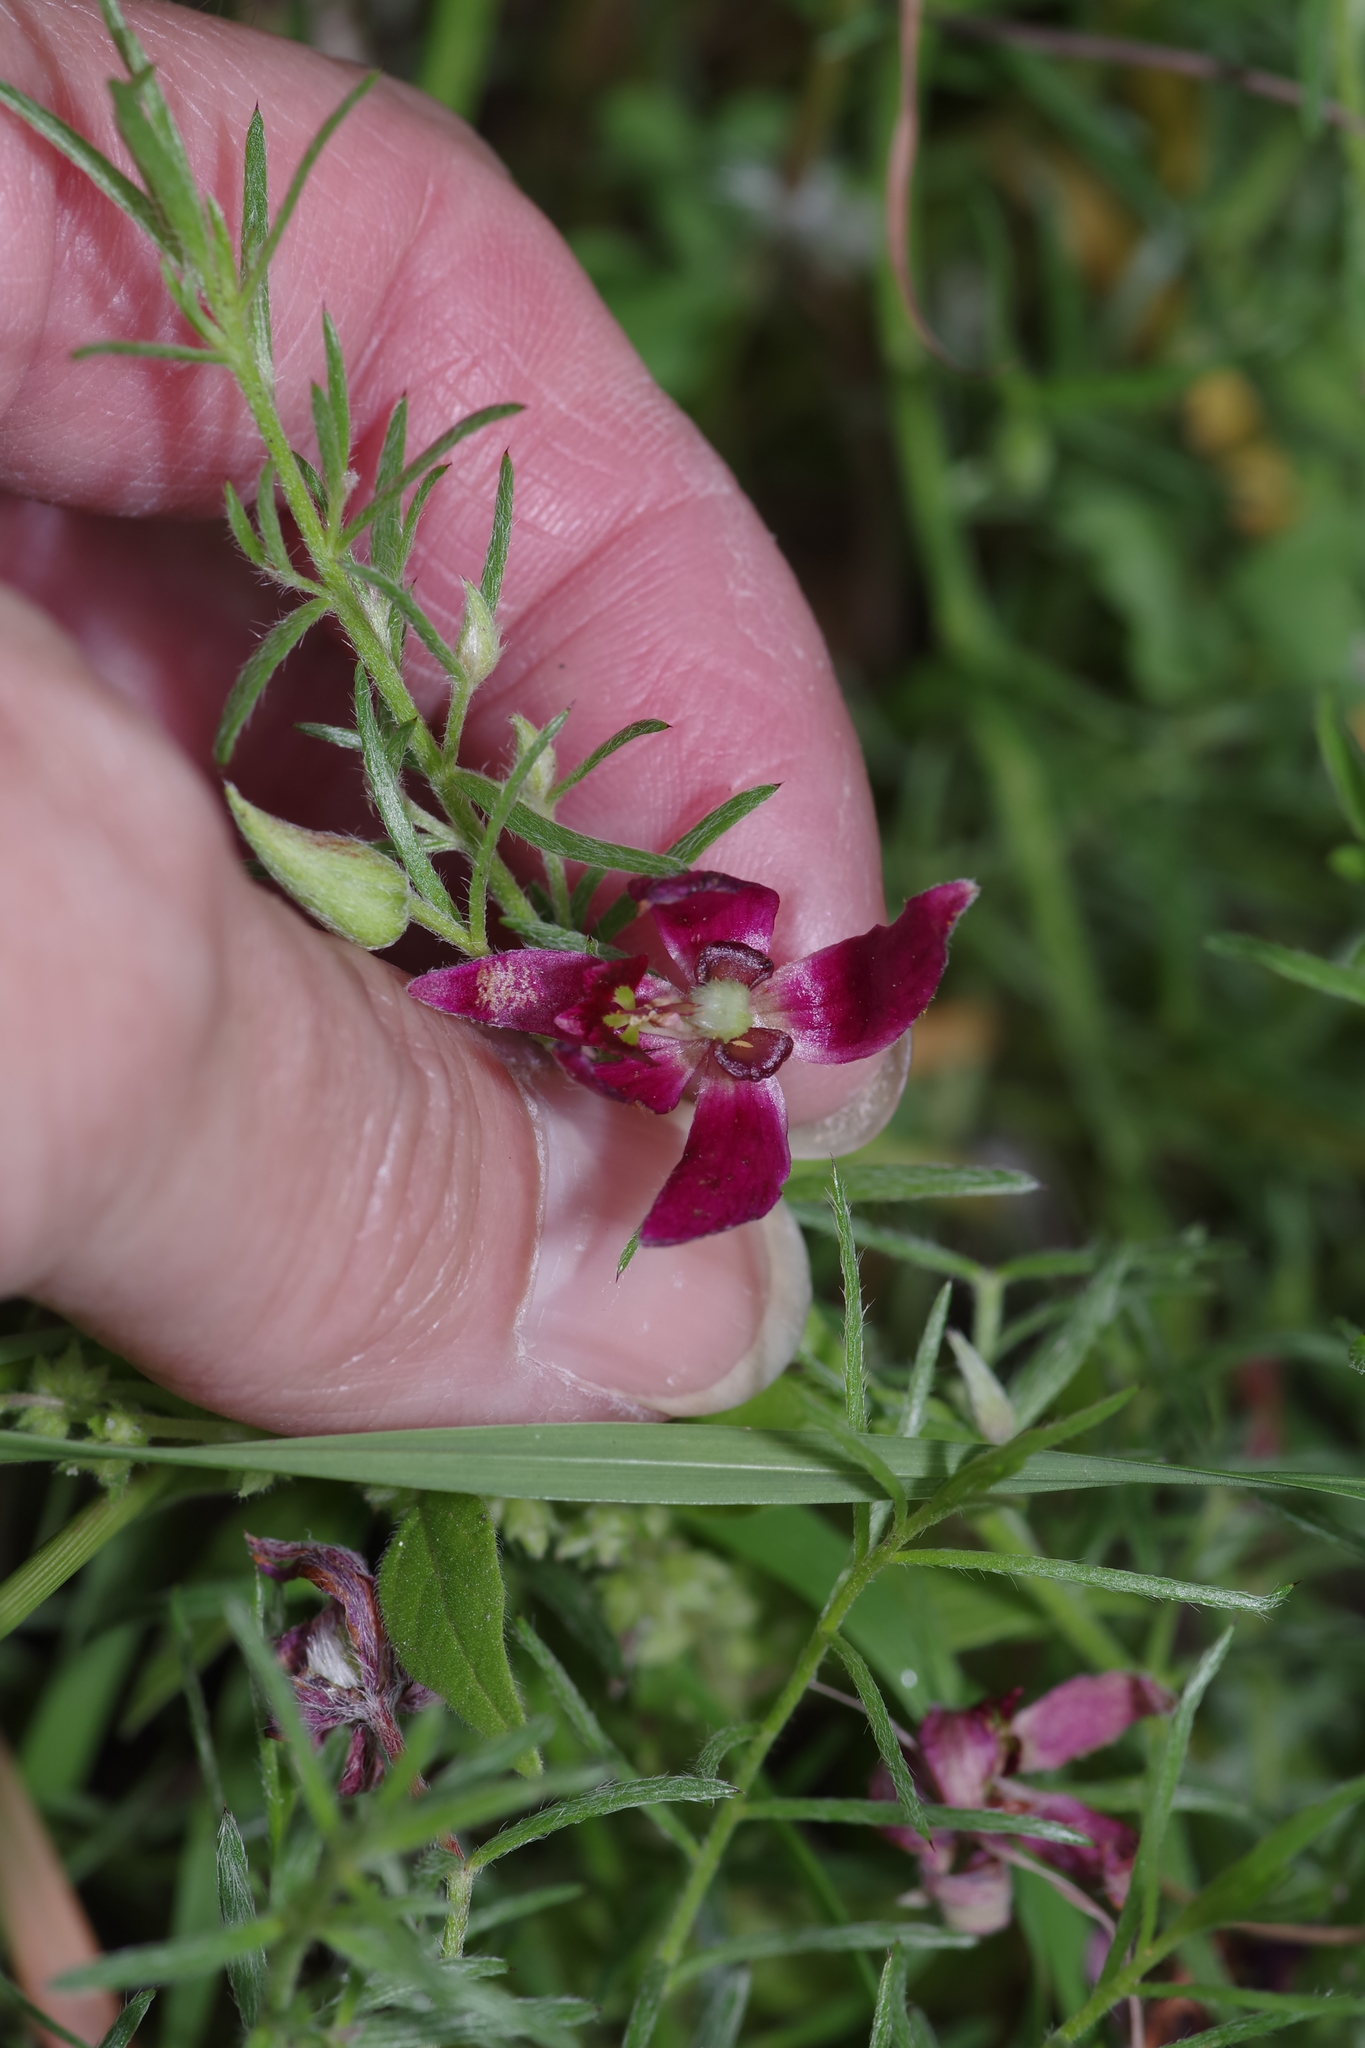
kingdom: Plantae
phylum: Tracheophyta
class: Magnoliopsida
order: Zygophyllales
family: Krameriaceae
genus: Krameria
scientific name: Krameria lanceolata
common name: Ratany
